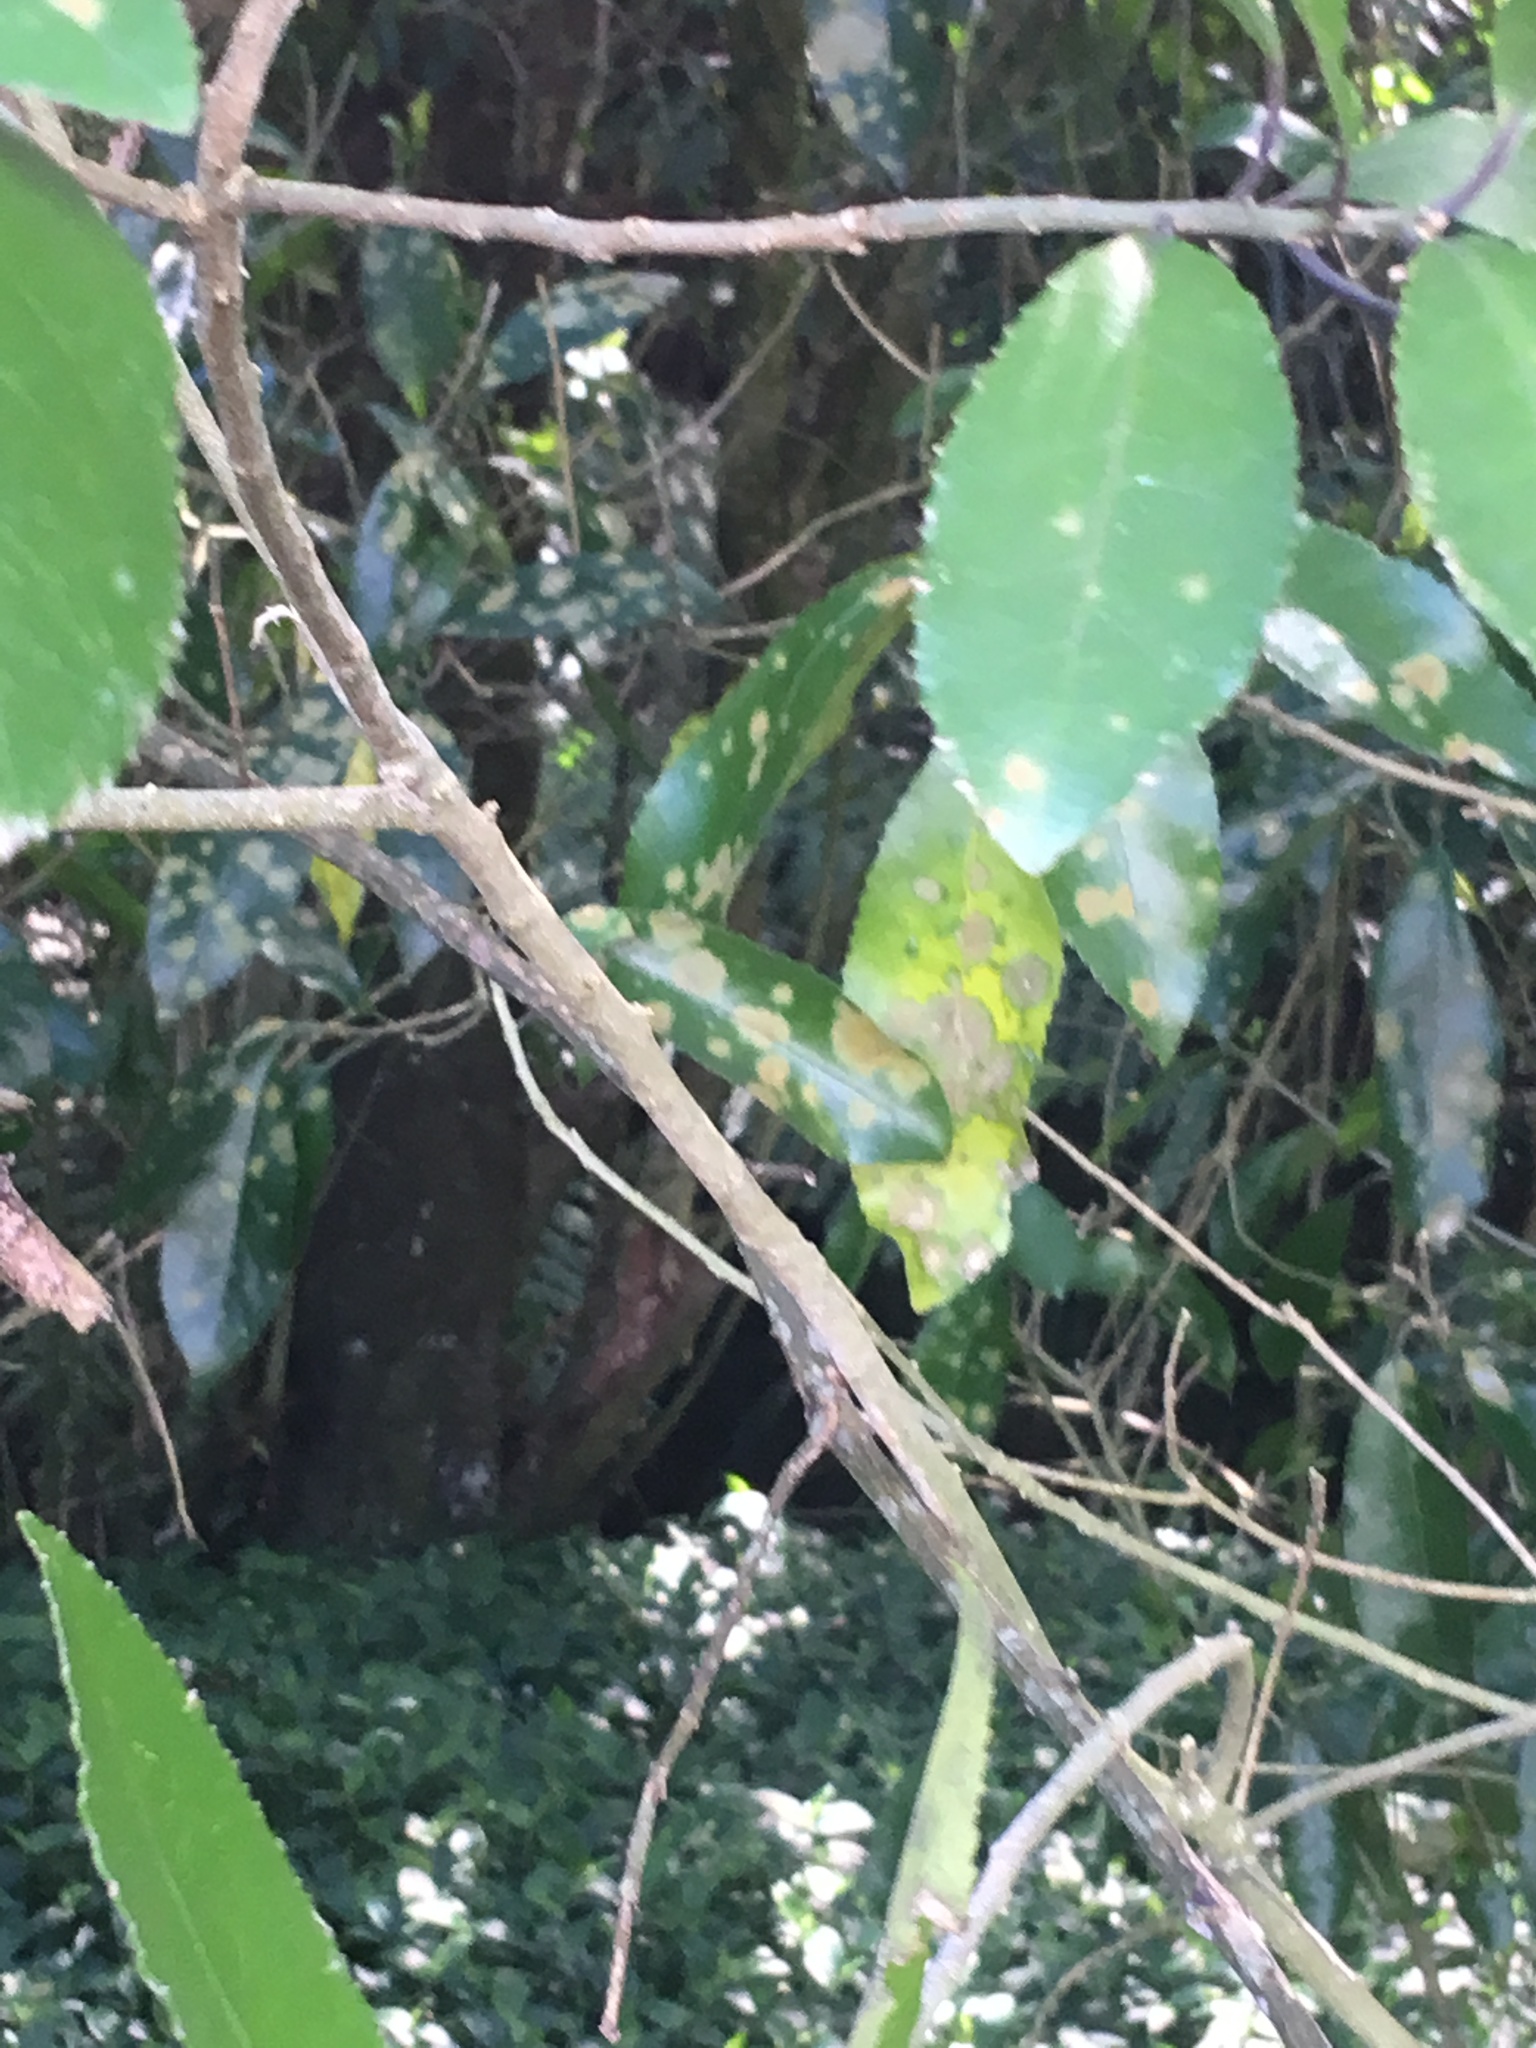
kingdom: Plantae
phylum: Tracheophyta
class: Liliopsida
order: Commelinales
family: Commelinaceae
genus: Tradescantia
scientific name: Tradescantia fluminensis
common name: Wandering-jew
